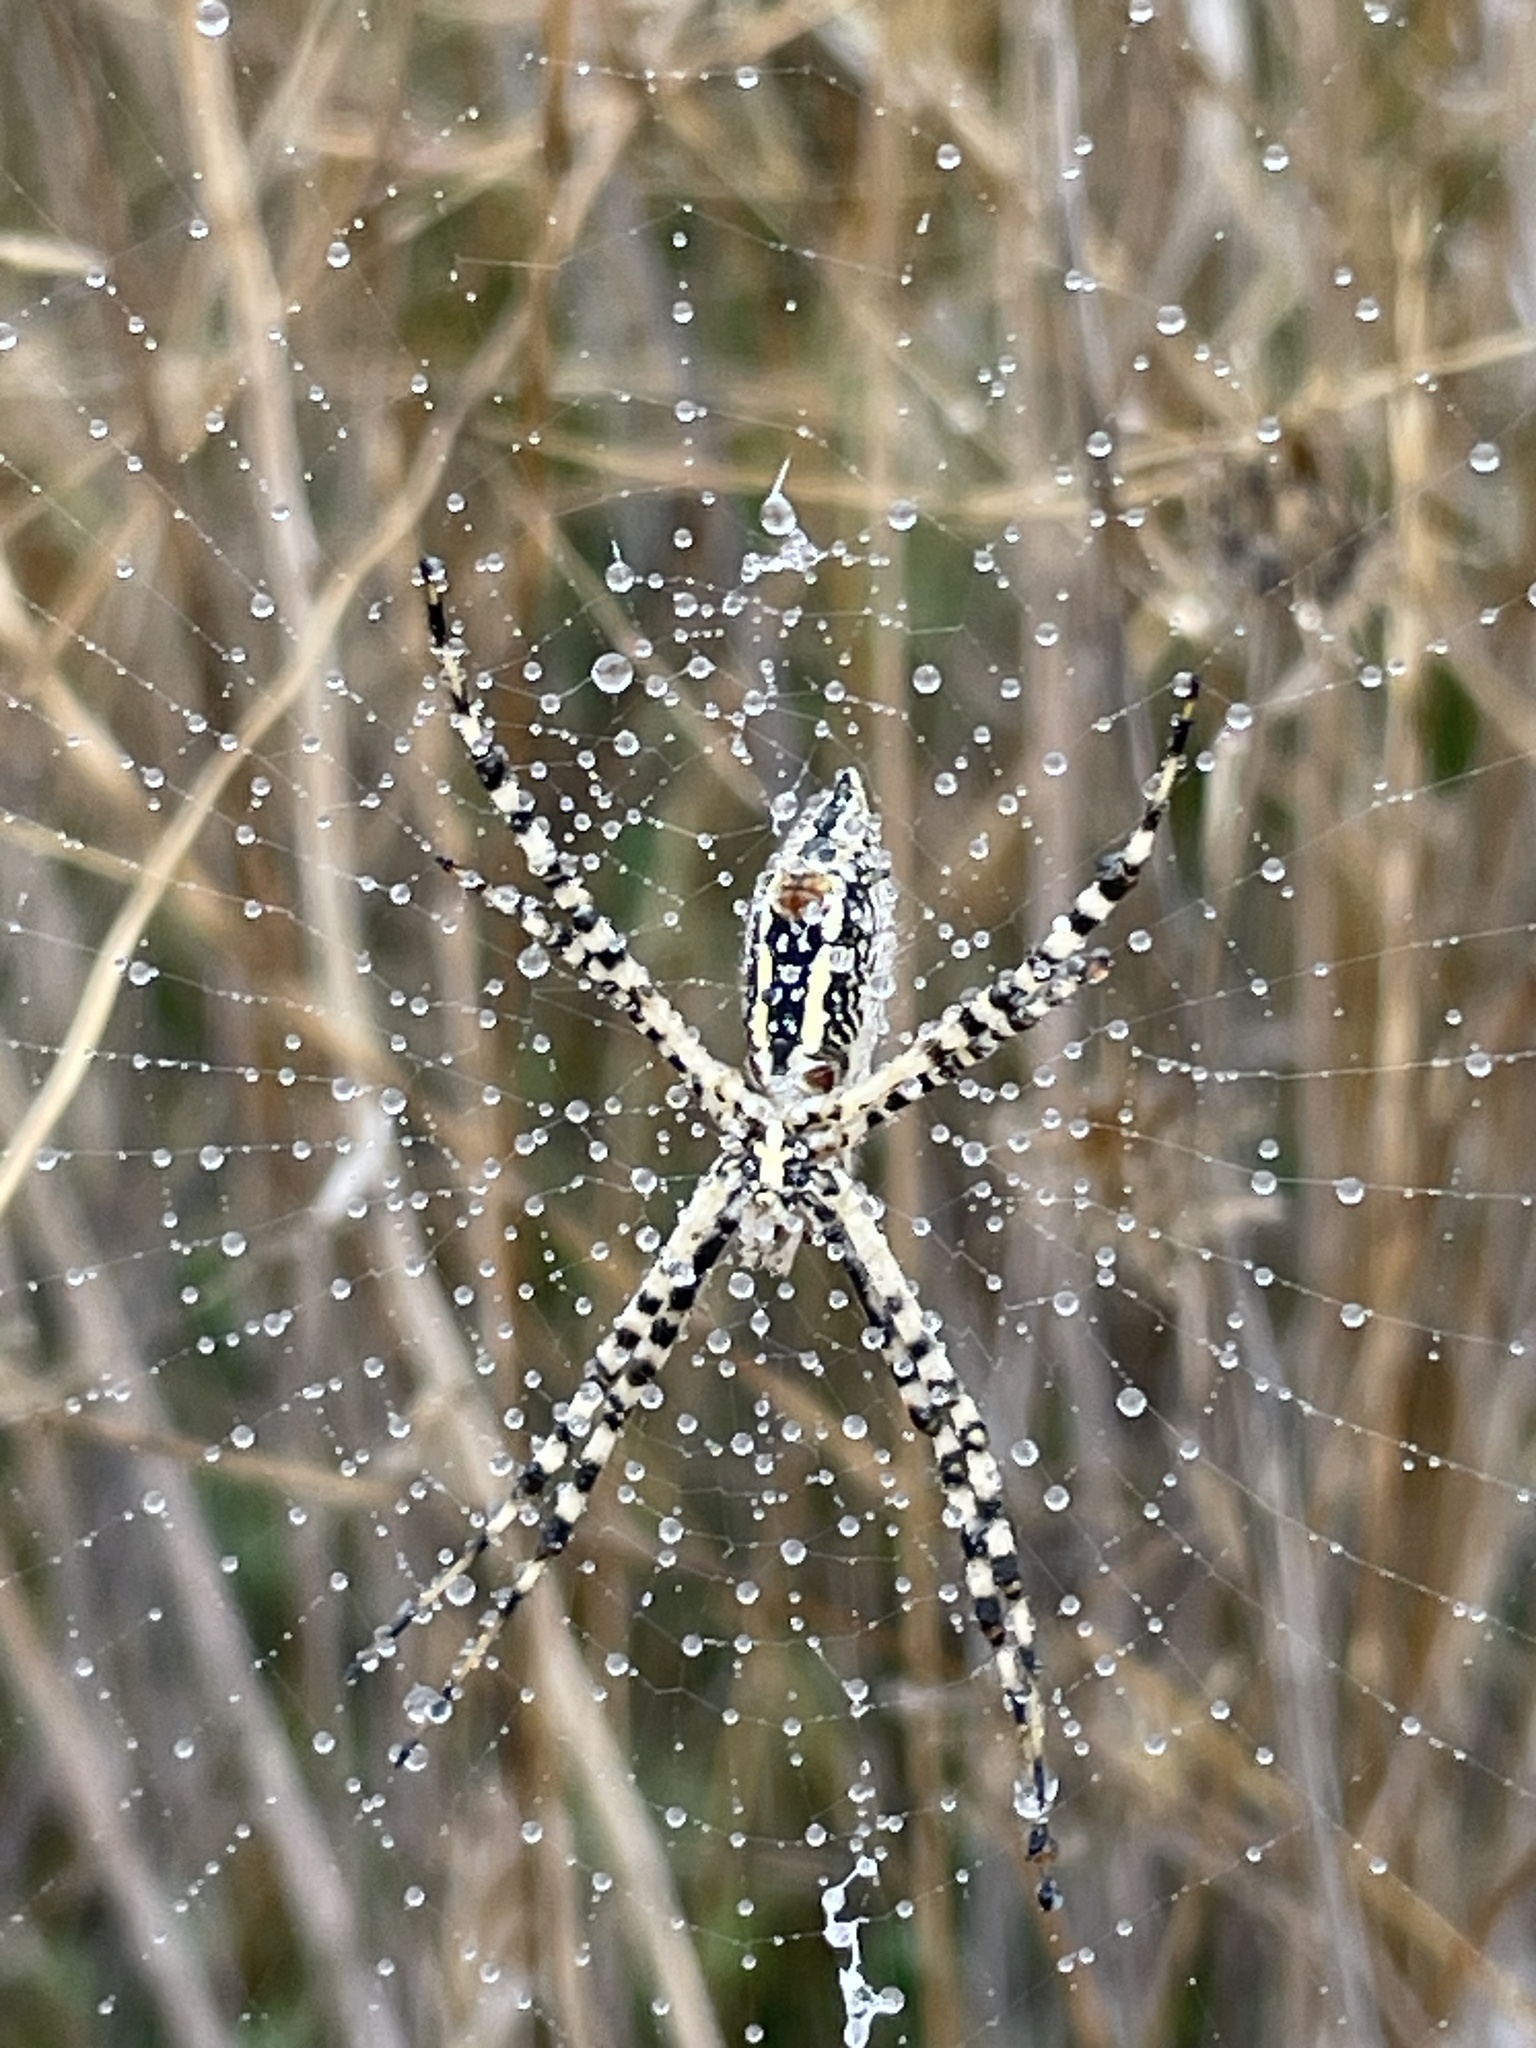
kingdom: Animalia
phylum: Arthropoda
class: Arachnida
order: Araneae
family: Araneidae
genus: Argiope
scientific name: Argiope trifasciata
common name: Banded garden spider
